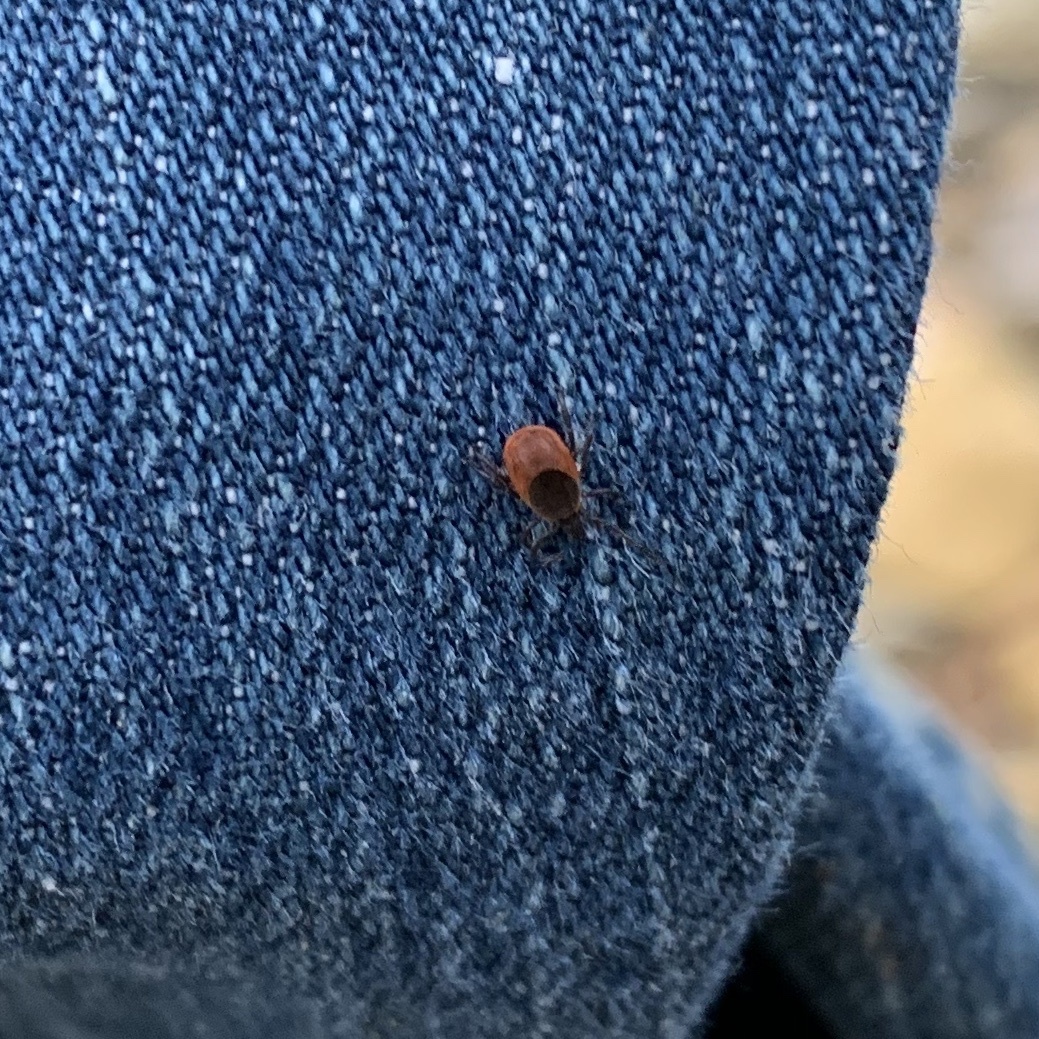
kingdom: Animalia
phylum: Arthropoda
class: Arachnida
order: Ixodida
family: Ixodidae
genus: Ixodes
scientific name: Ixodes scapularis
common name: Black legged tick
